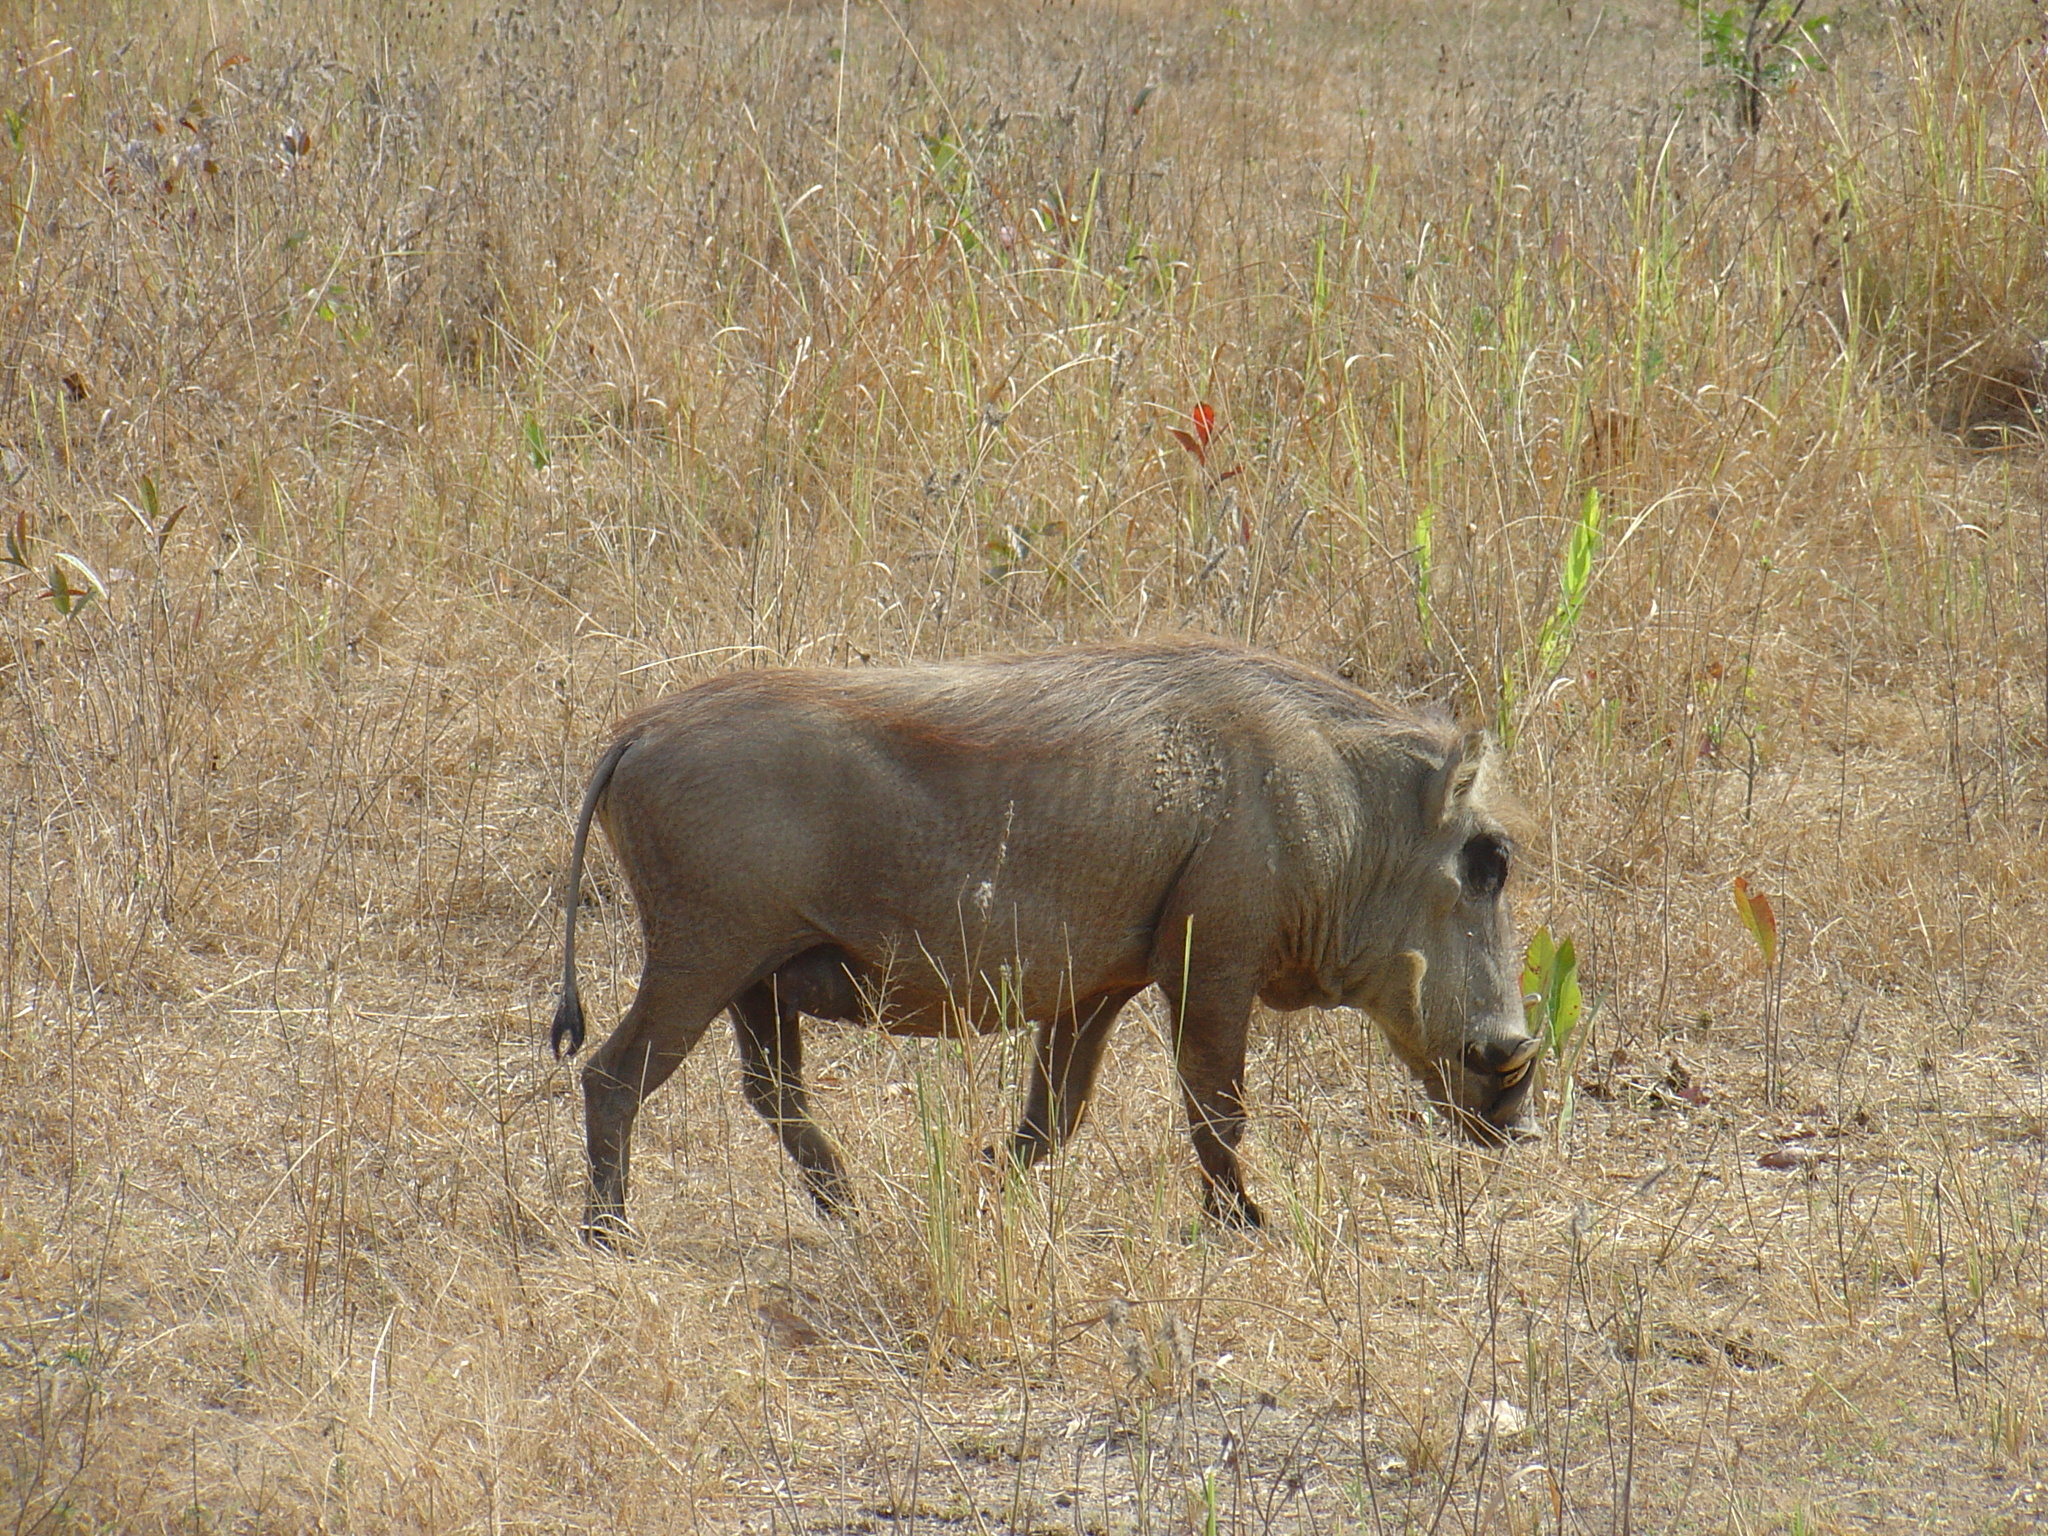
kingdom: Animalia
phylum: Chordata
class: Mammalia
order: Artiodactyla
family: Suidae
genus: Phacochoerus
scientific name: Phacochoerus africanus
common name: Common warthog
